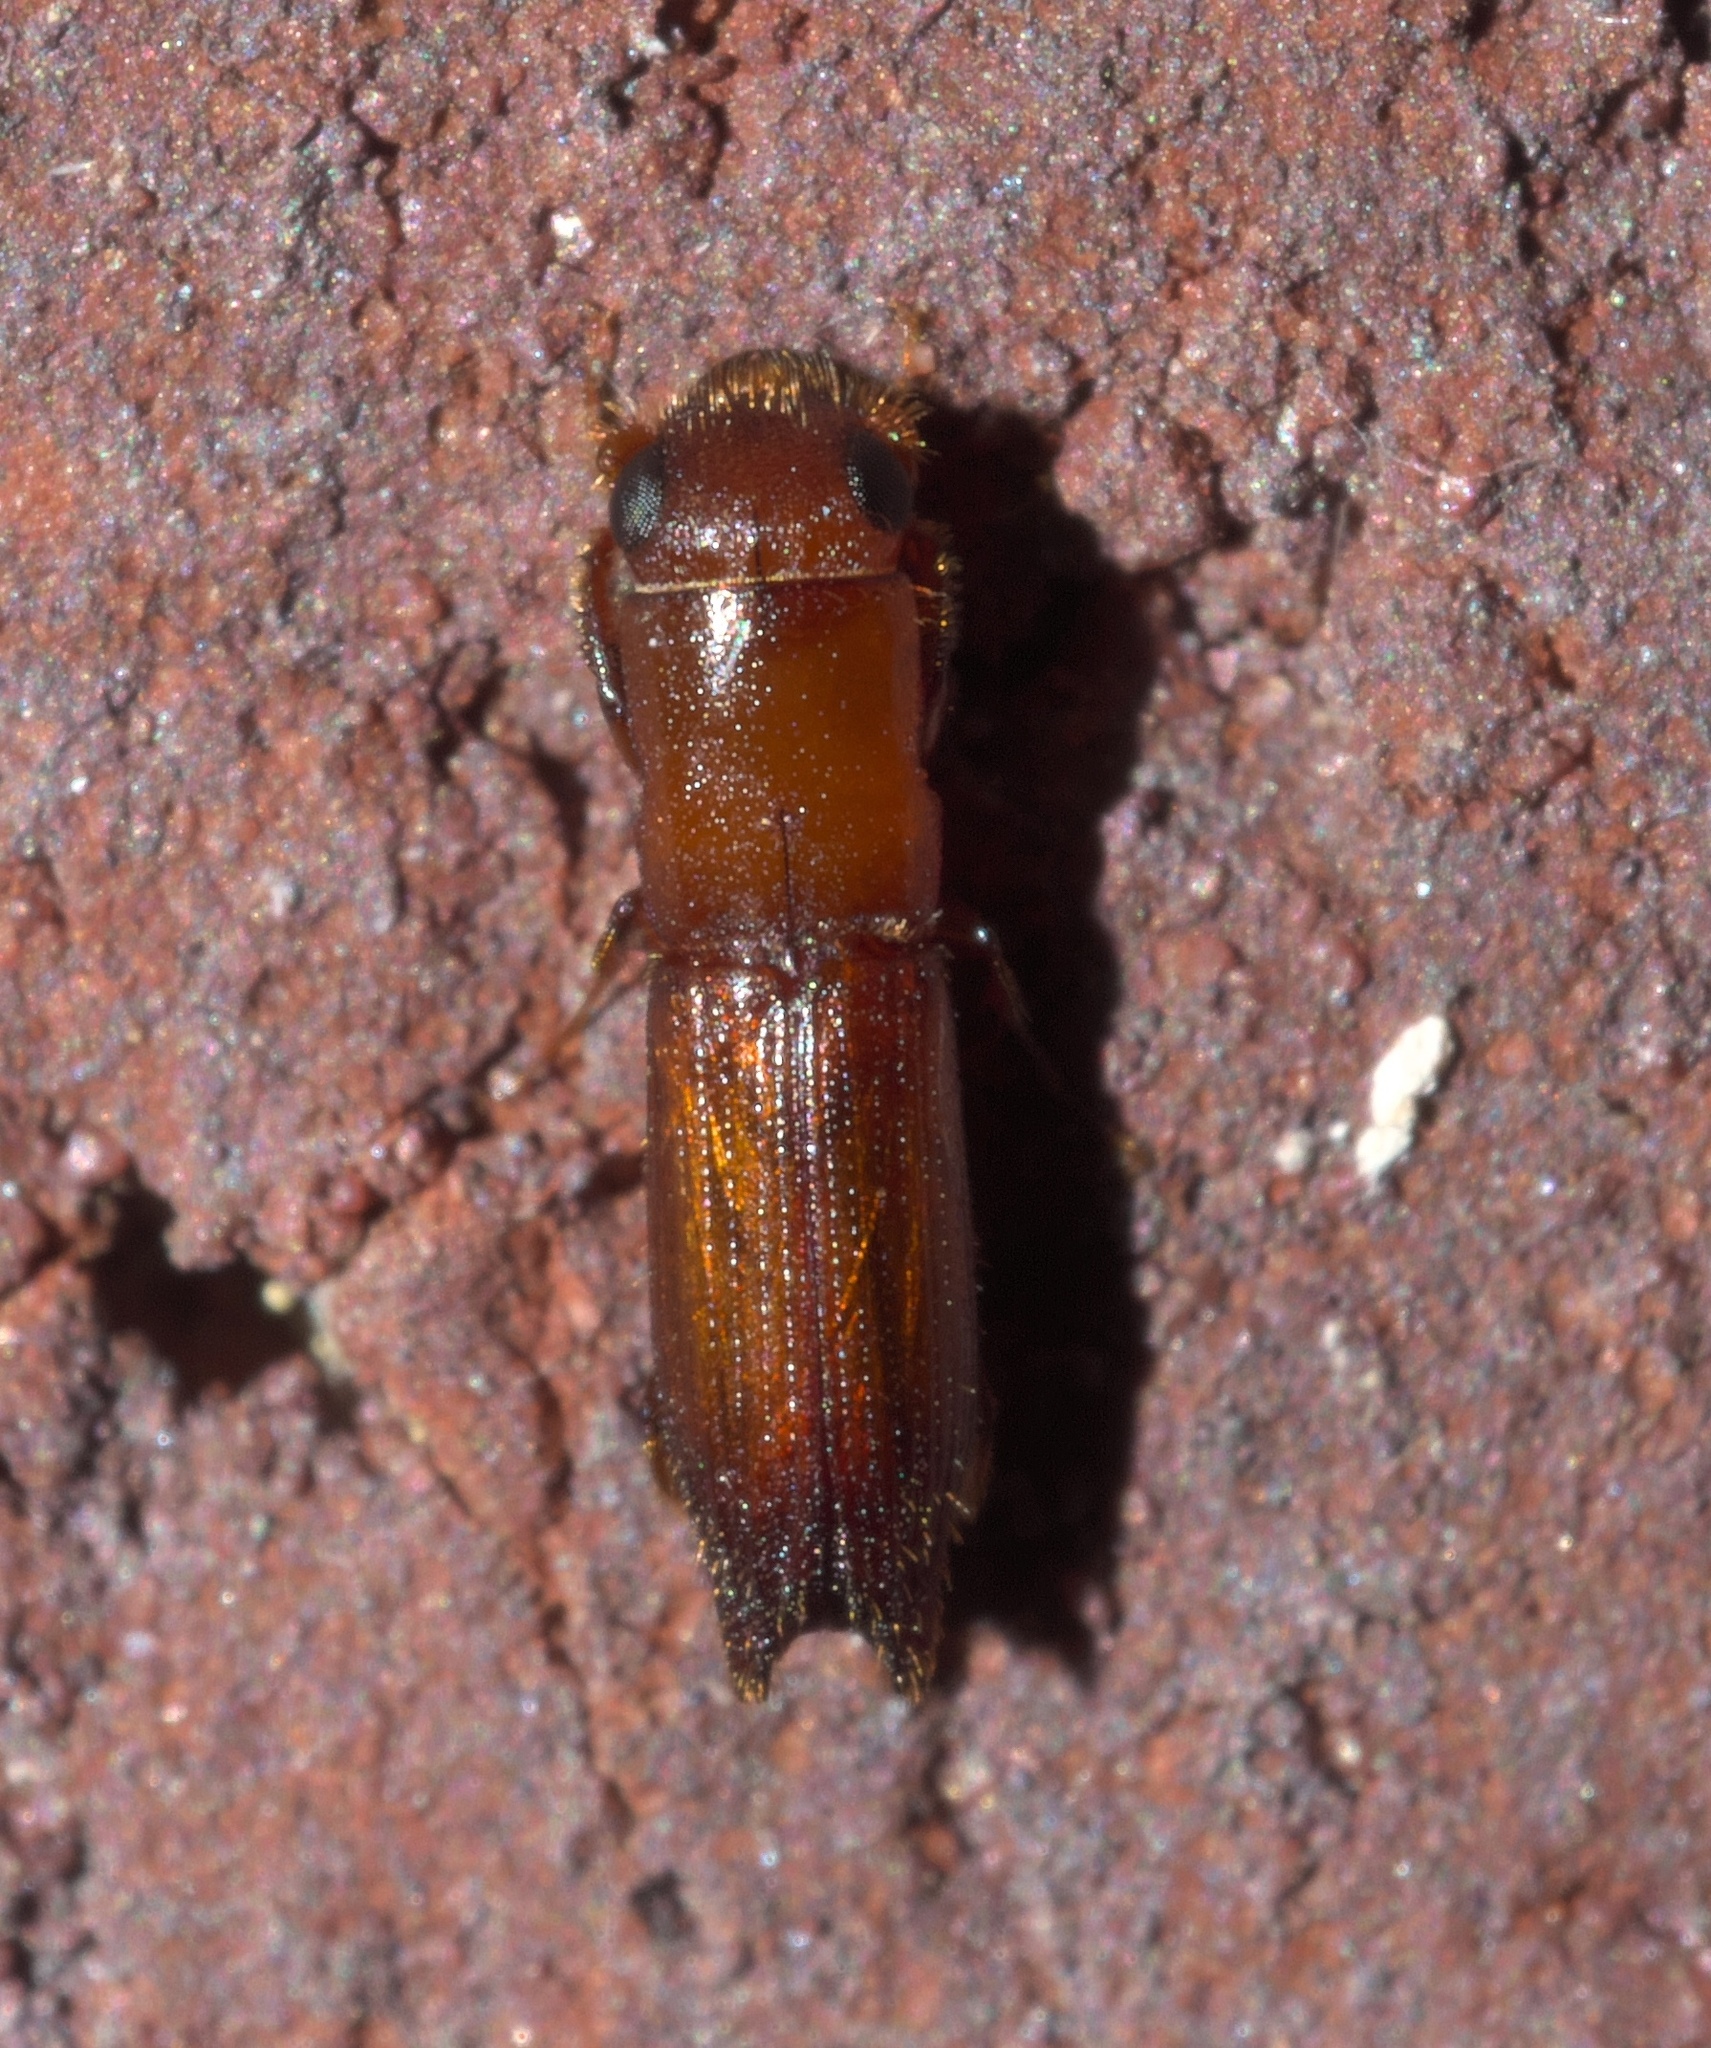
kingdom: Animalia
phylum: Arthropoda
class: Insecta
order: Coleoptera
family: Curculionidae
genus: Euplatypus
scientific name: Euplatypus compositus
